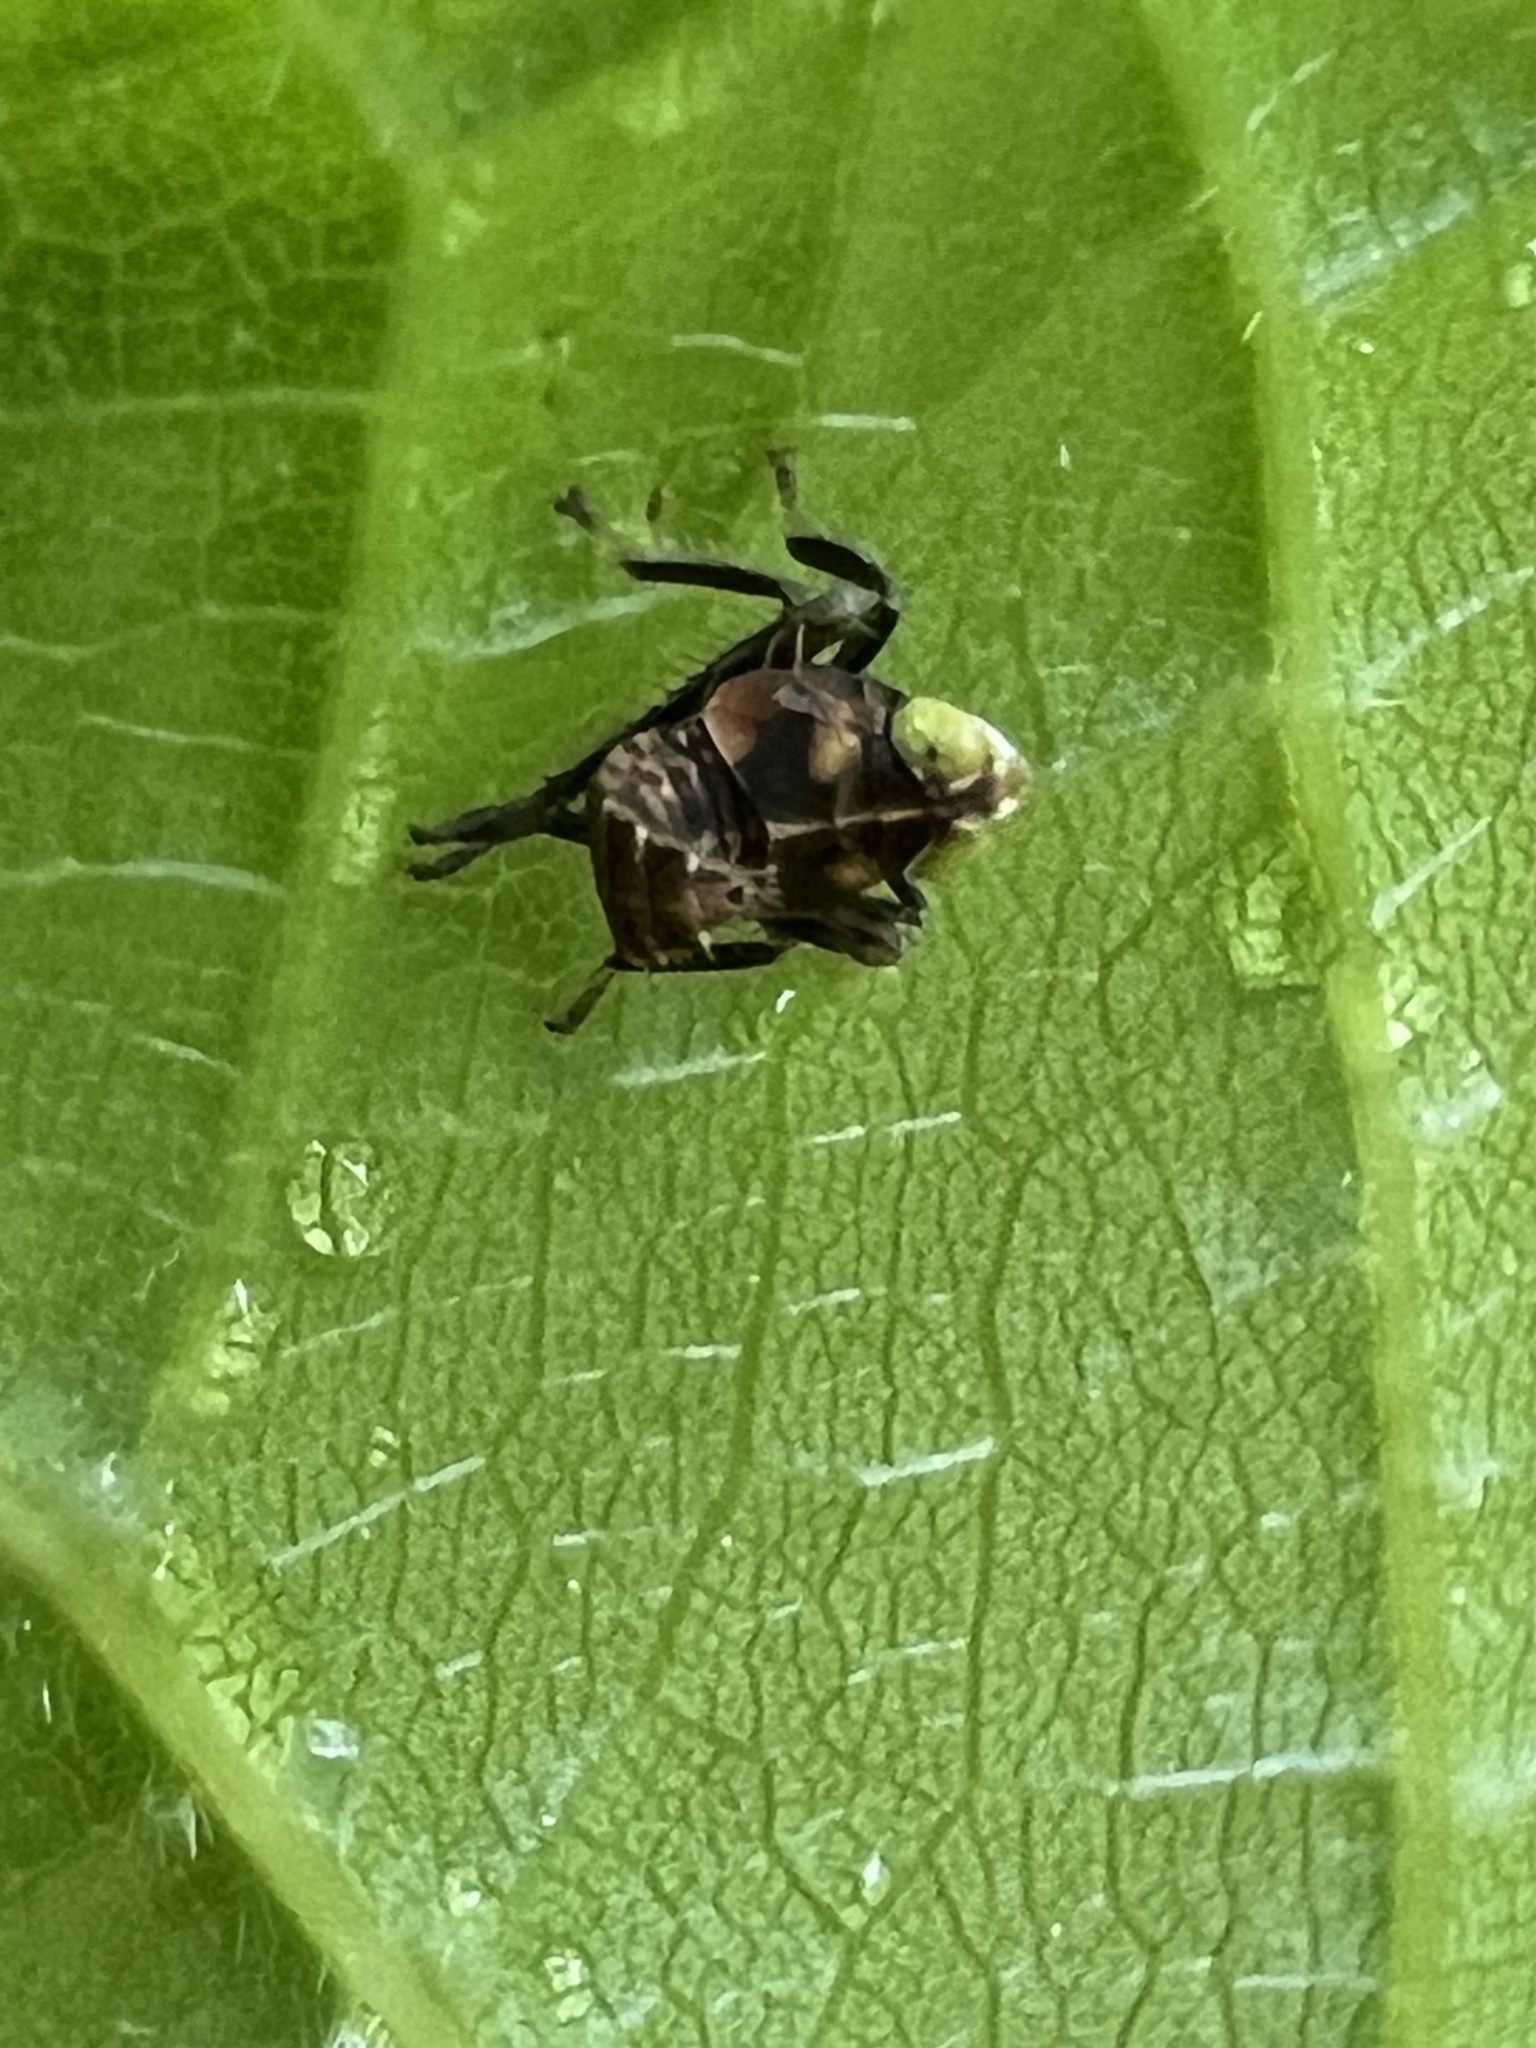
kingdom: Animalia
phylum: Arthropoda
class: Insecta
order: Hemiptera
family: Cicadellidae
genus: Jikradia
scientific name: Jikradia olitoria
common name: Coppery leafhopper
